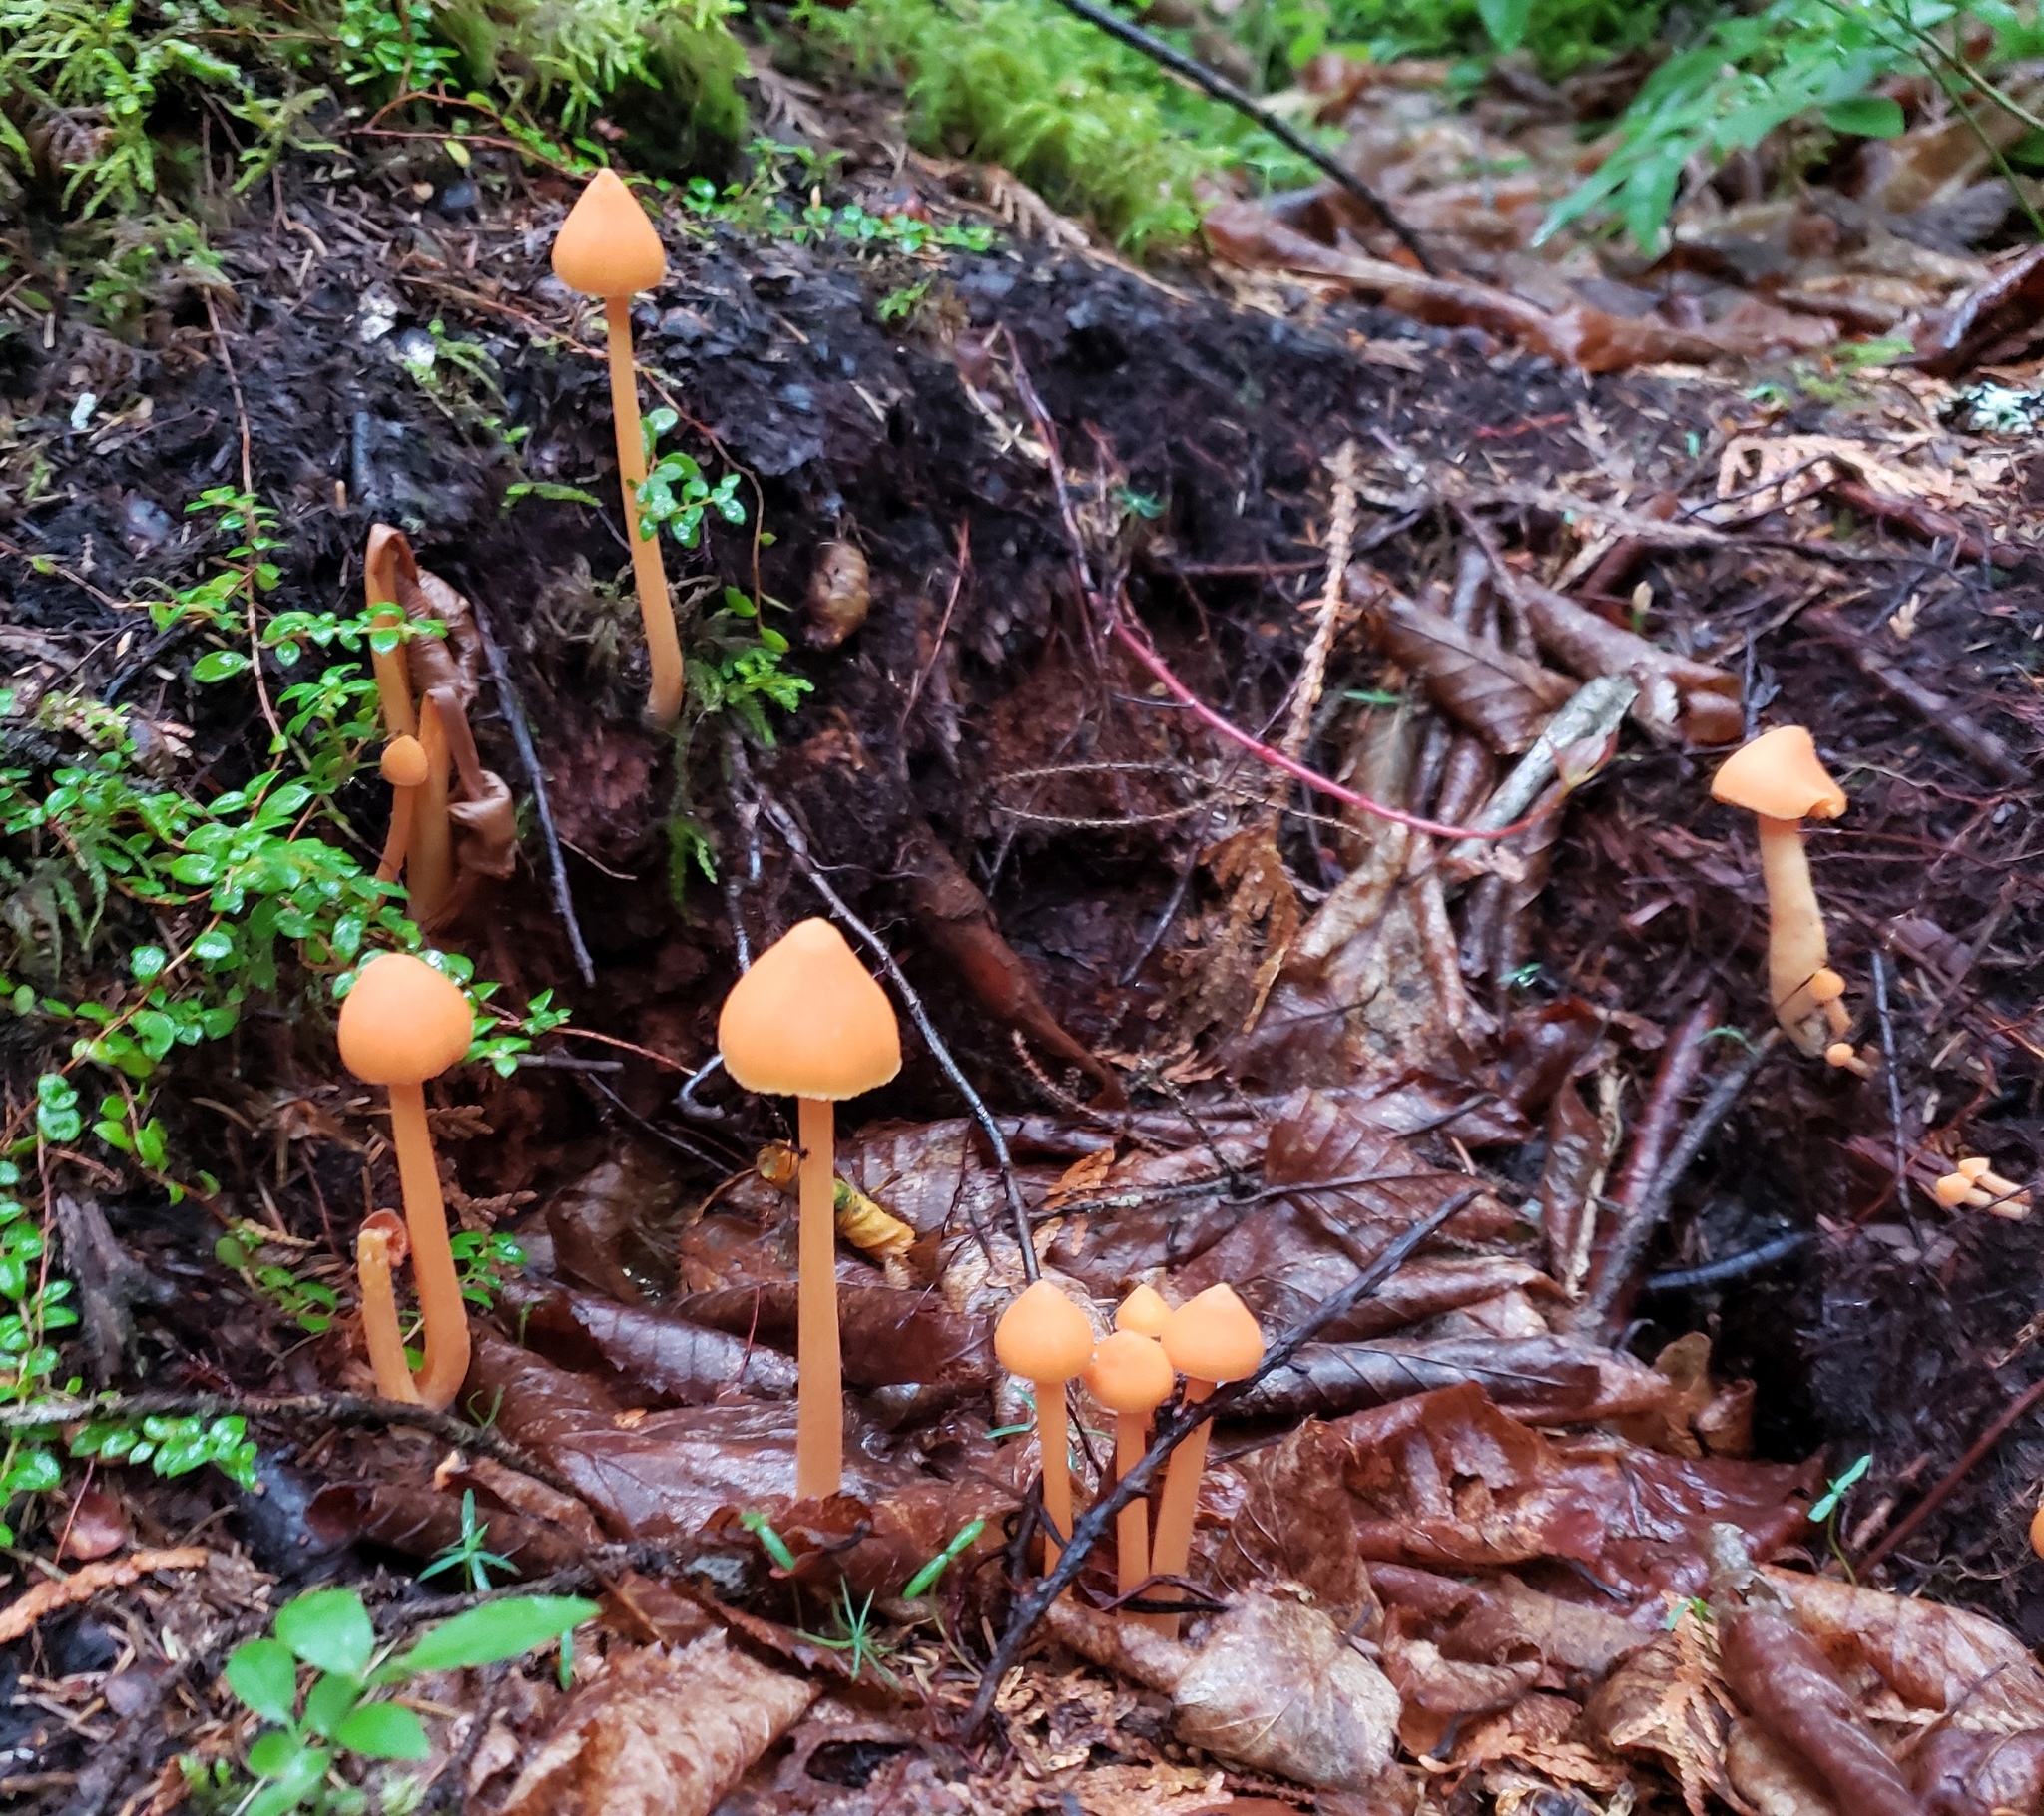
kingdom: Fungi
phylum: Basidiomycota
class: Agaricomycetes
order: Agaricales
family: Entolomataceae
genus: Entoloma
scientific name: Entoloma quadratum
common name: Salmon pinkgill
